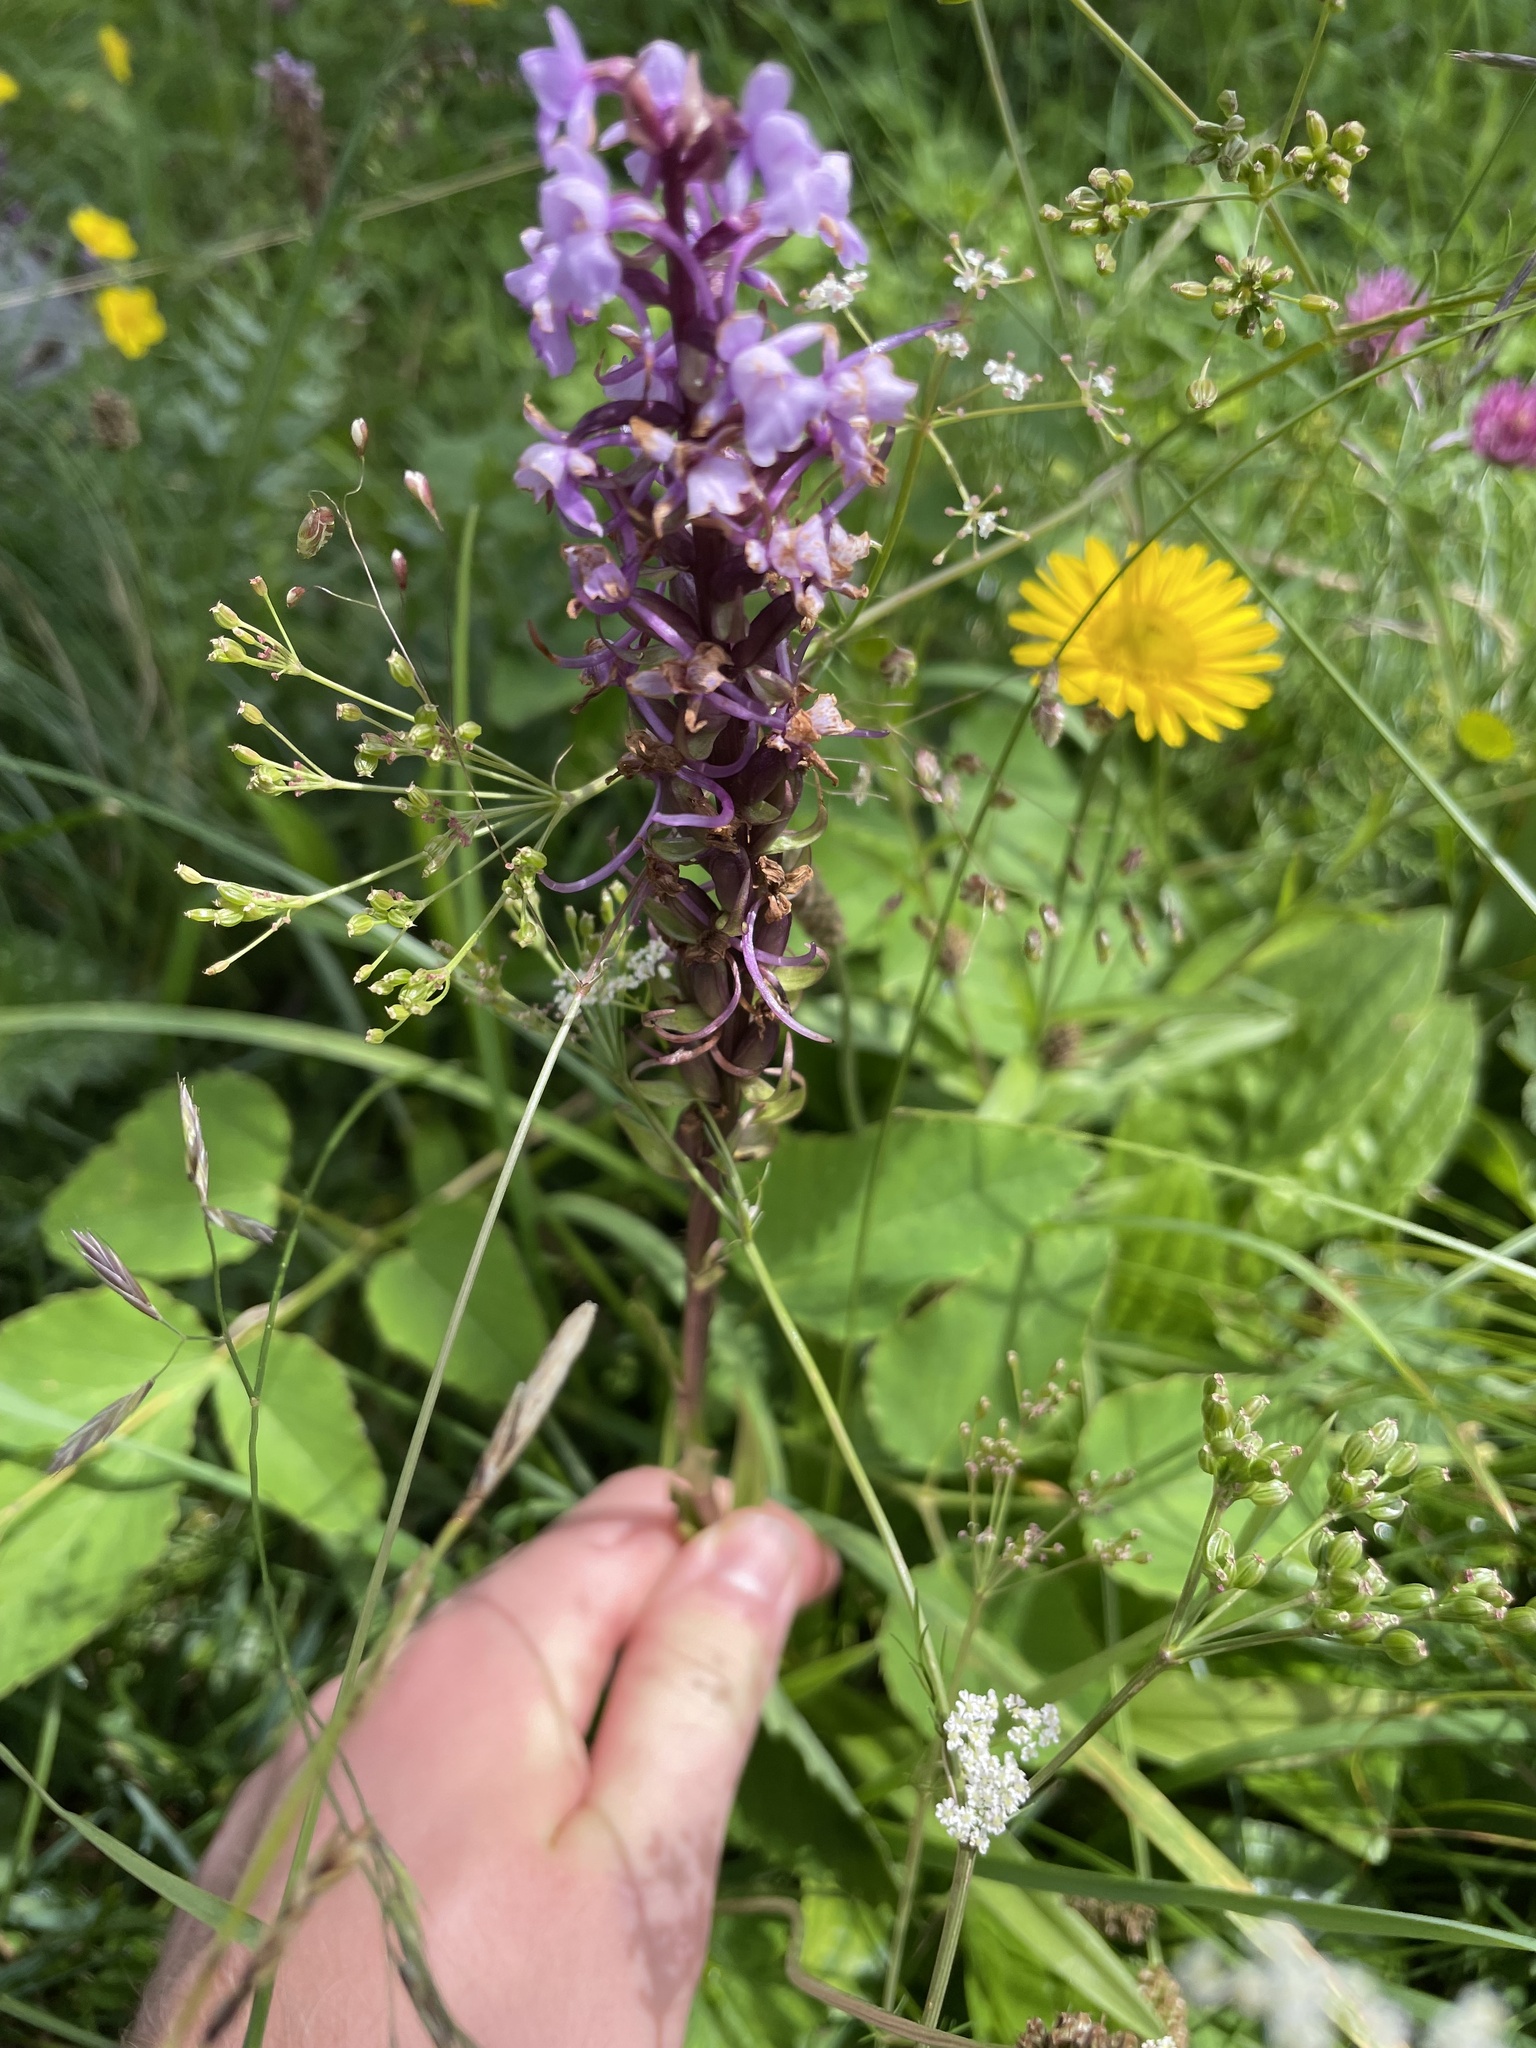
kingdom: Plantae
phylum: Tracheophyta
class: Liliopsida
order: Asparagales
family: Orchidaceae
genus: Gymnadenia
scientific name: Gymnadenia conopsea
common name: Fragrant orchid
